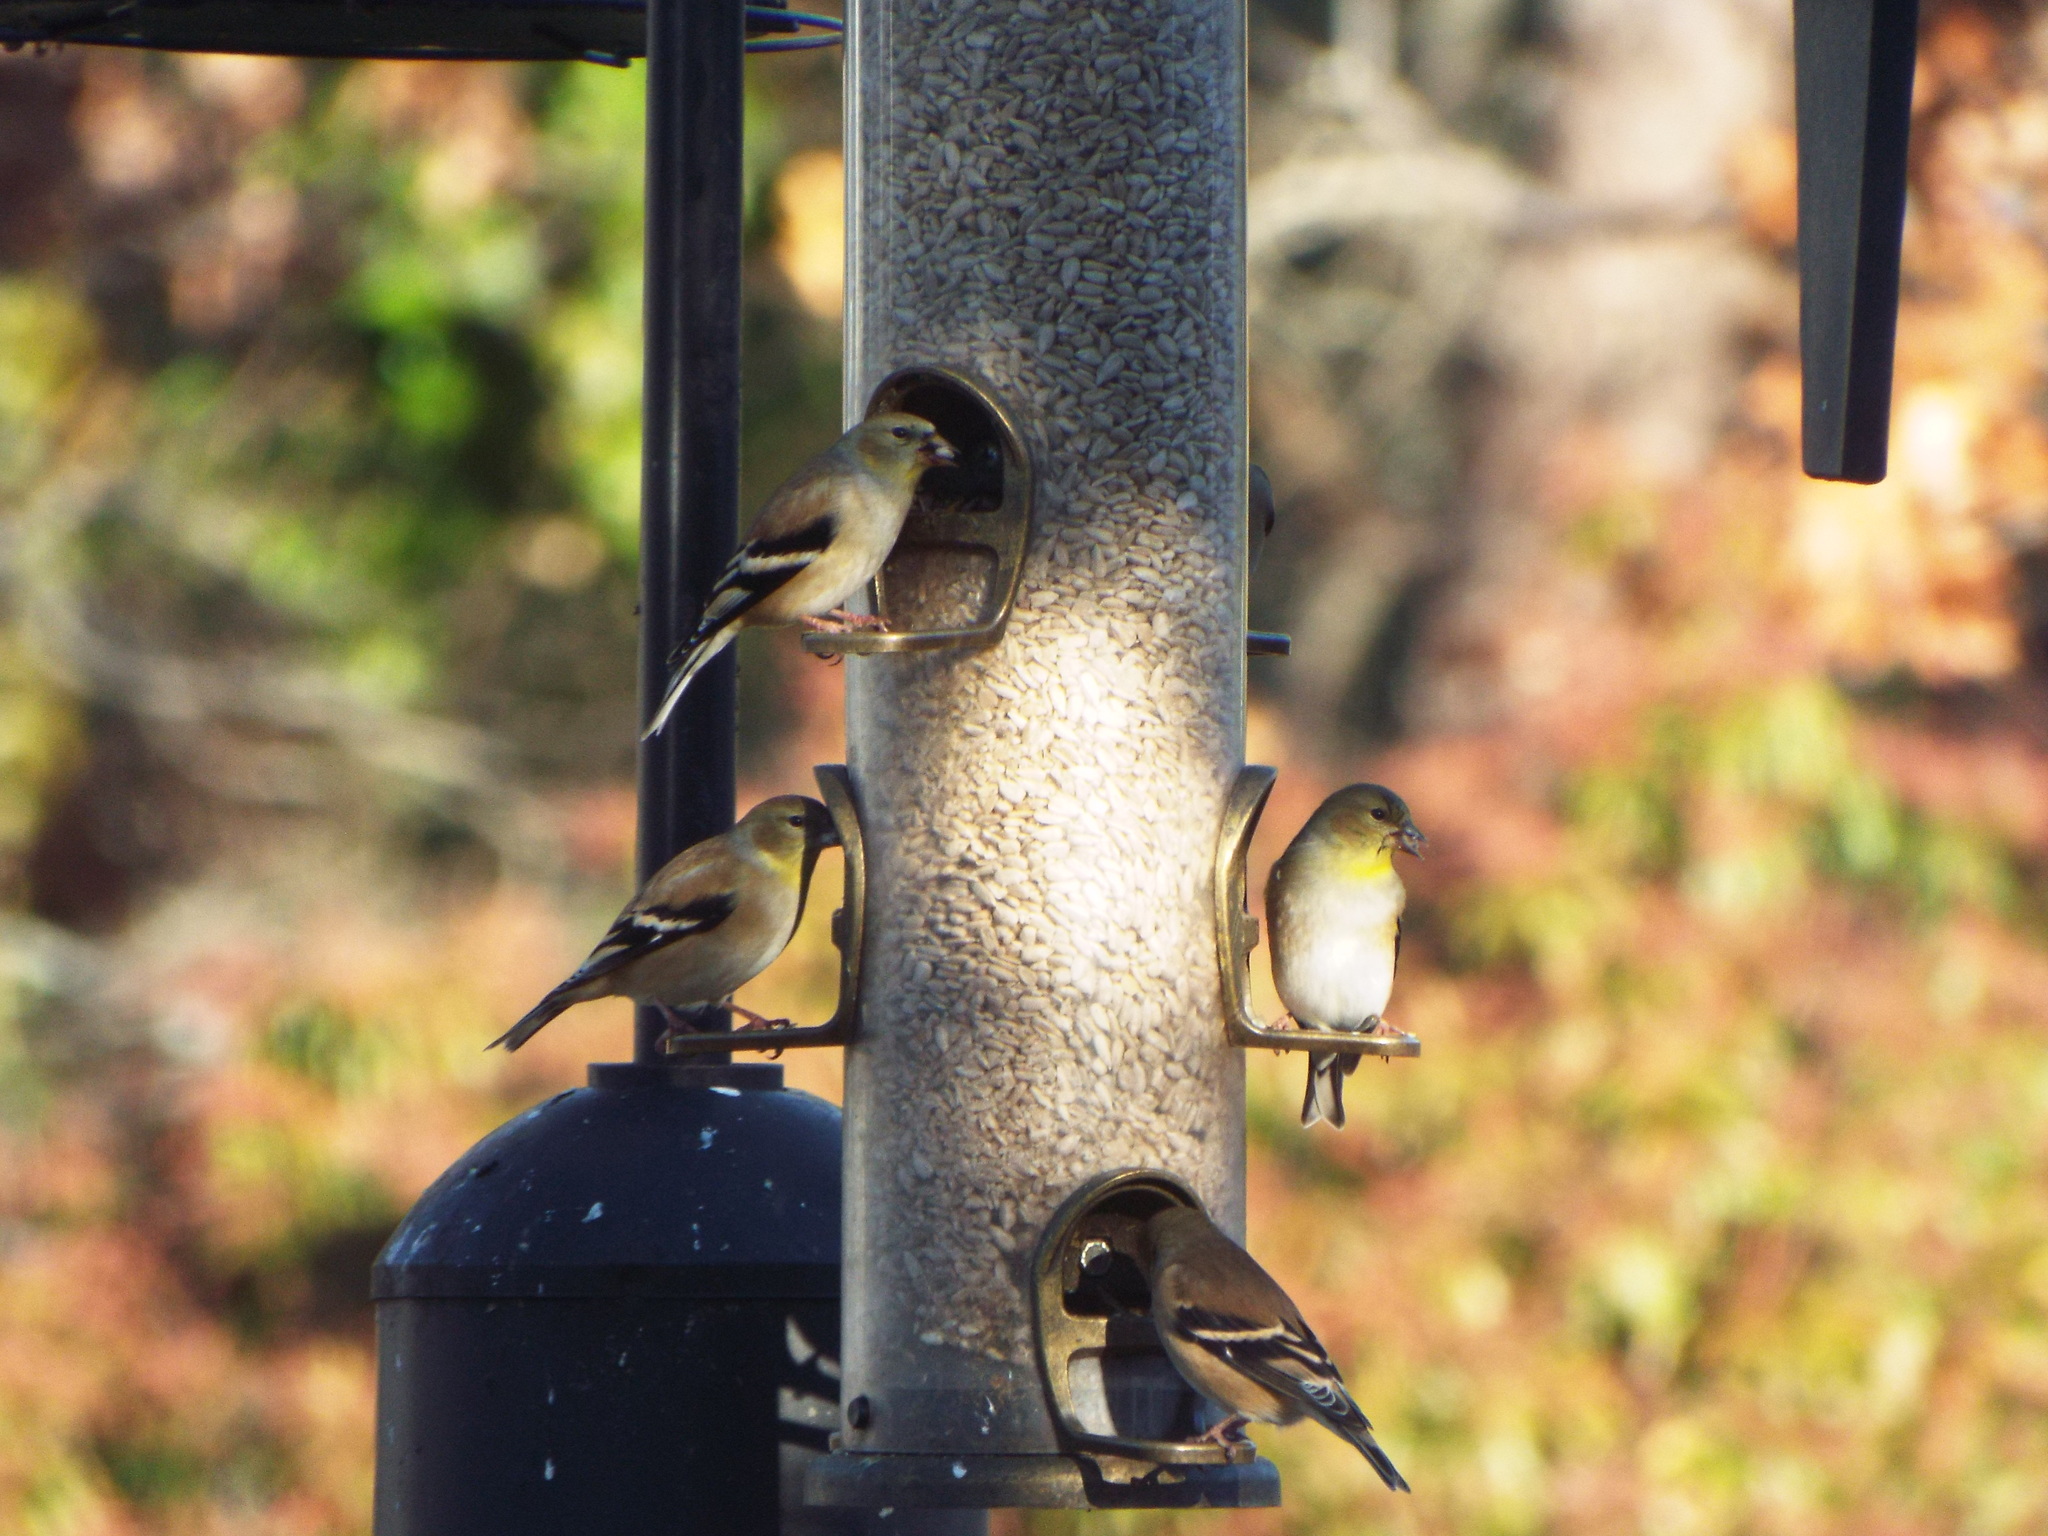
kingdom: Animalia
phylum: Chordata
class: Aves
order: Passeriformes
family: Fringillidae
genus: Spinus
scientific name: Spinus tristis
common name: American goldfinch
